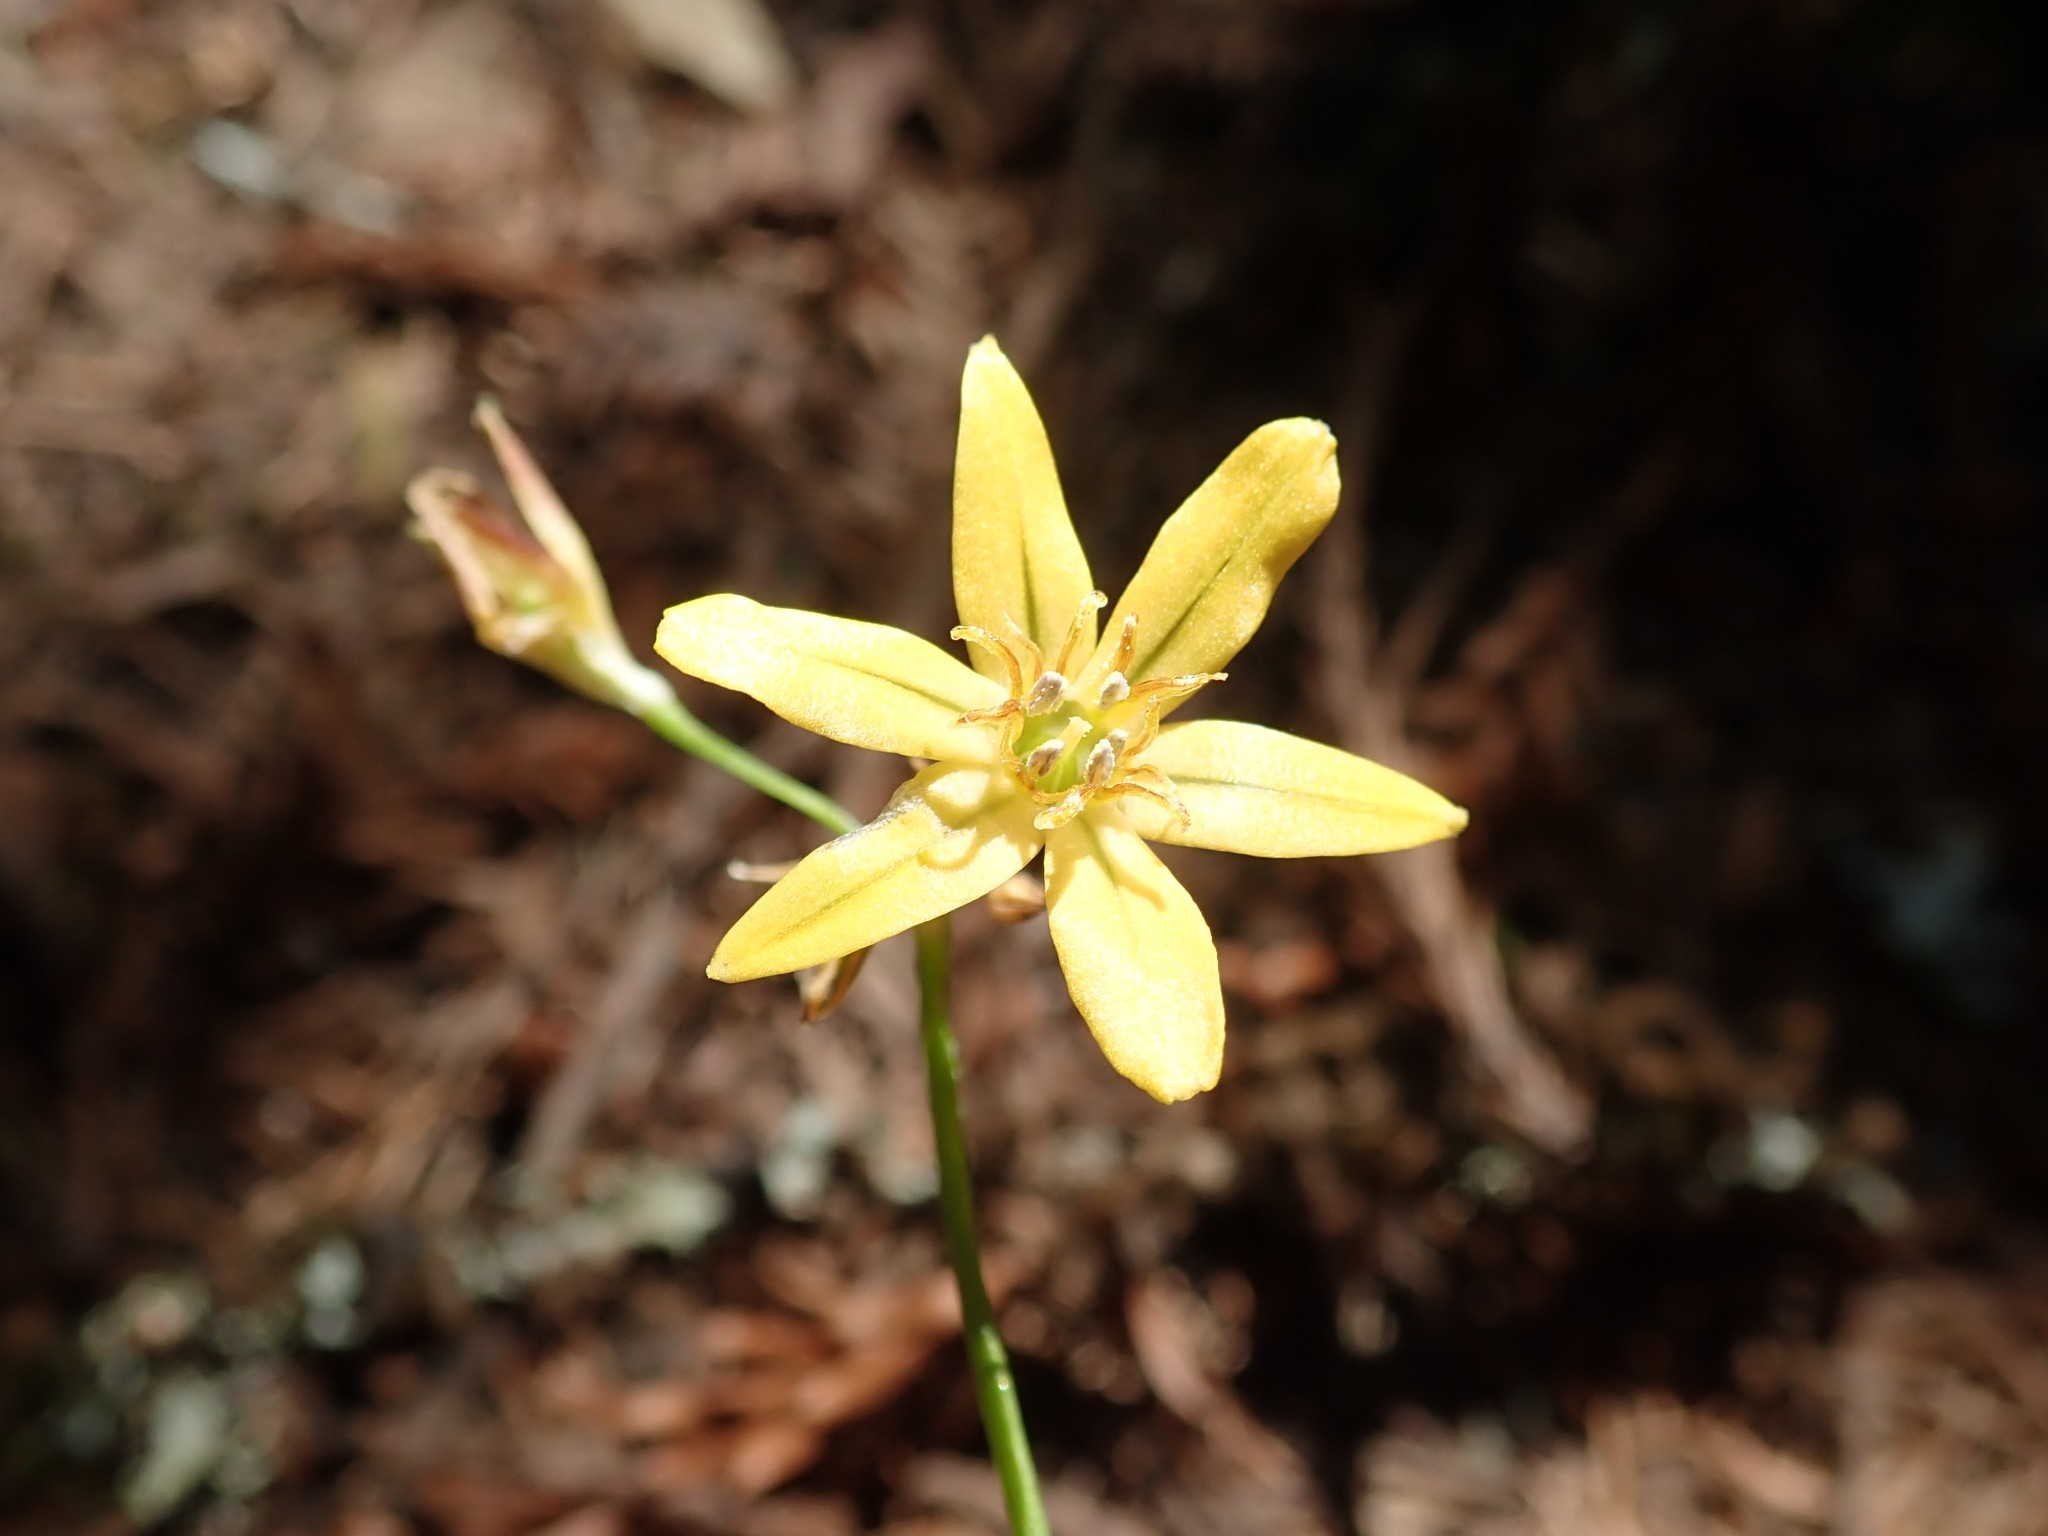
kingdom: Plantae
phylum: Tracheophyta
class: Liliopsida
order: Asparagales
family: Asparagaceae
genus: Triteleia
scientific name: Triteleia ixioides
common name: Yellow-brodiaea
